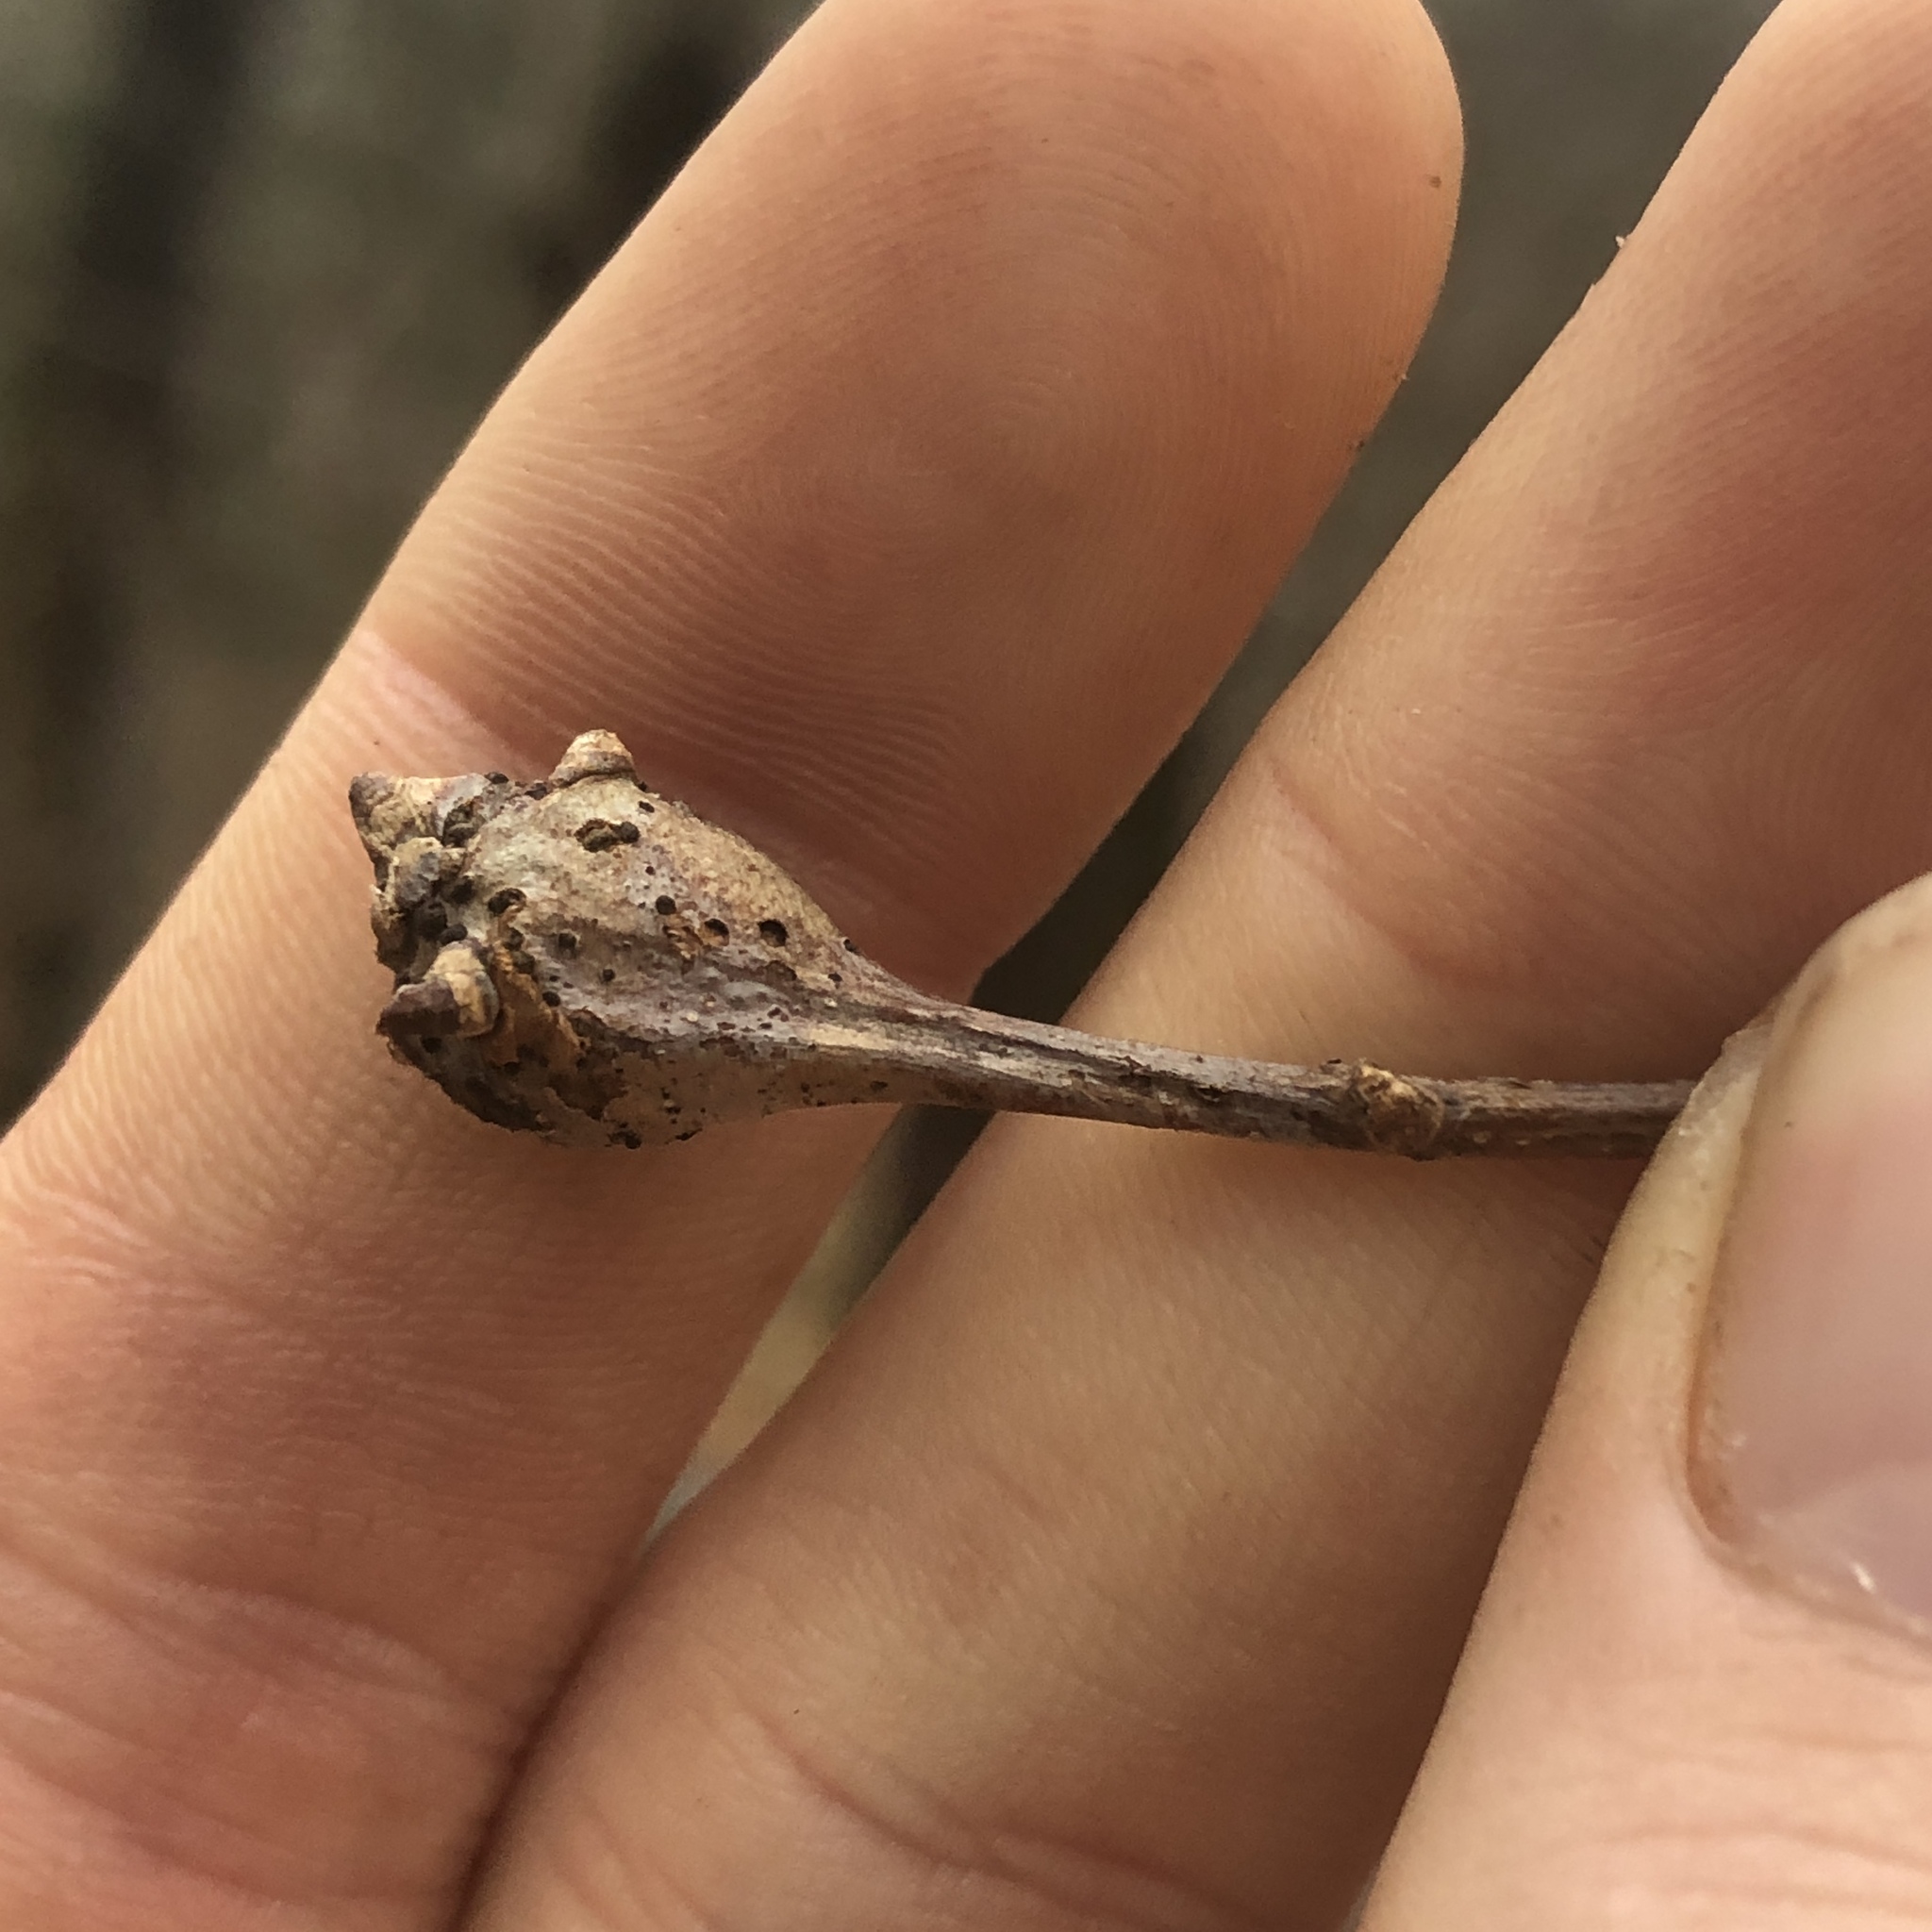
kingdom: Animalia
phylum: Arthropoda
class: Insecta
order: Hymenoptera
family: Cynipidae
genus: Callirhytis
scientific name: Callirhytis clavula
